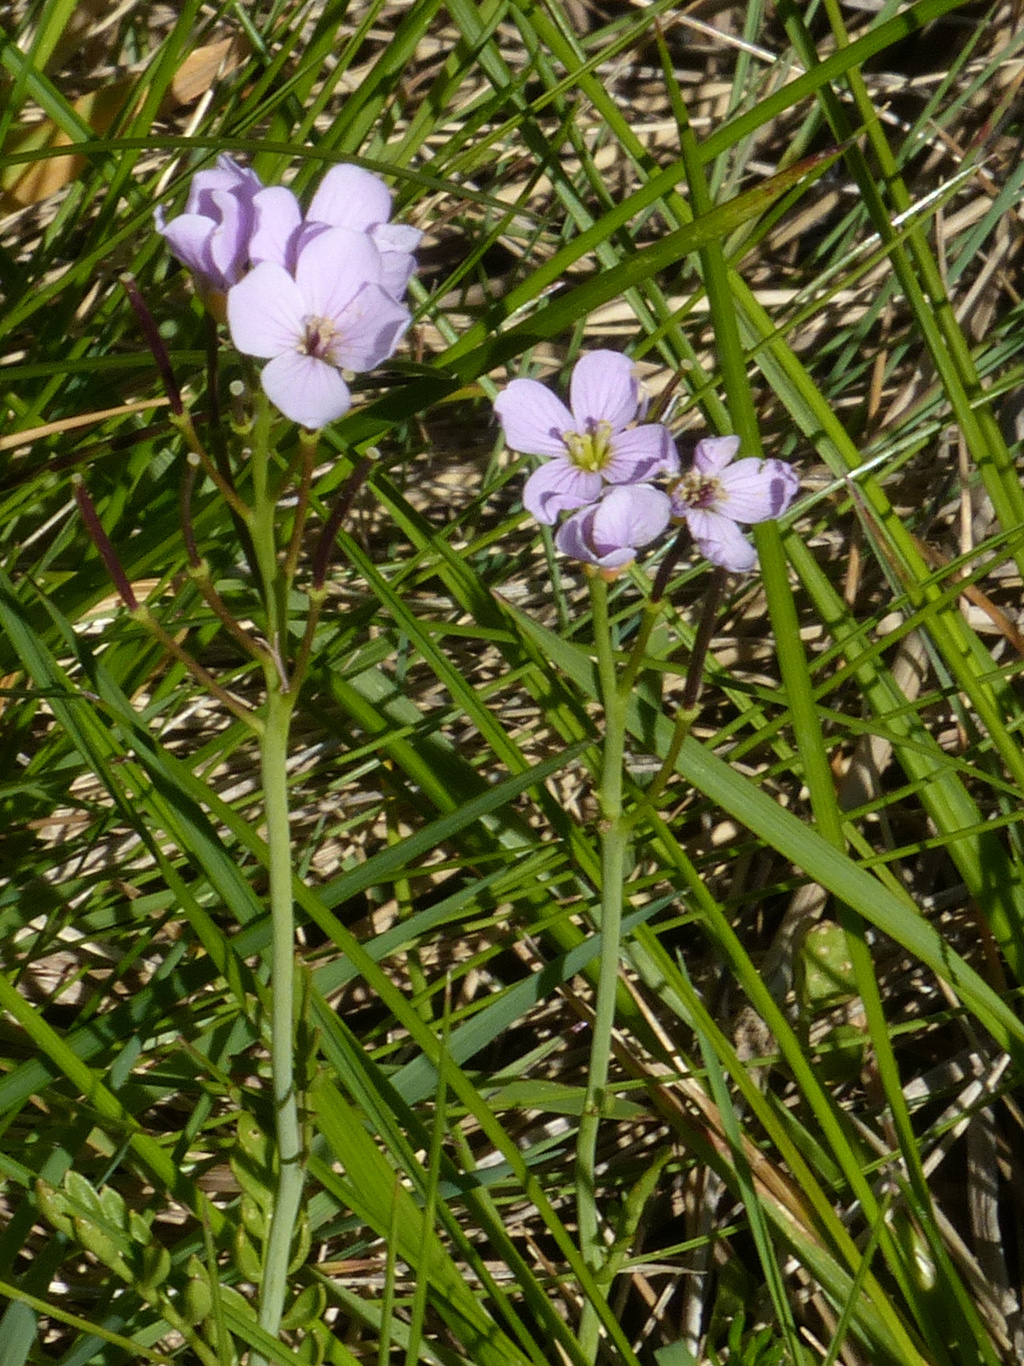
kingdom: Plantae
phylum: Tracheophyta
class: Magnoliopsida
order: Brassicales
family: Brassicaceae
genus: Cardamine
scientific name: Cardamine pratensis
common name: Cuckoo flower
